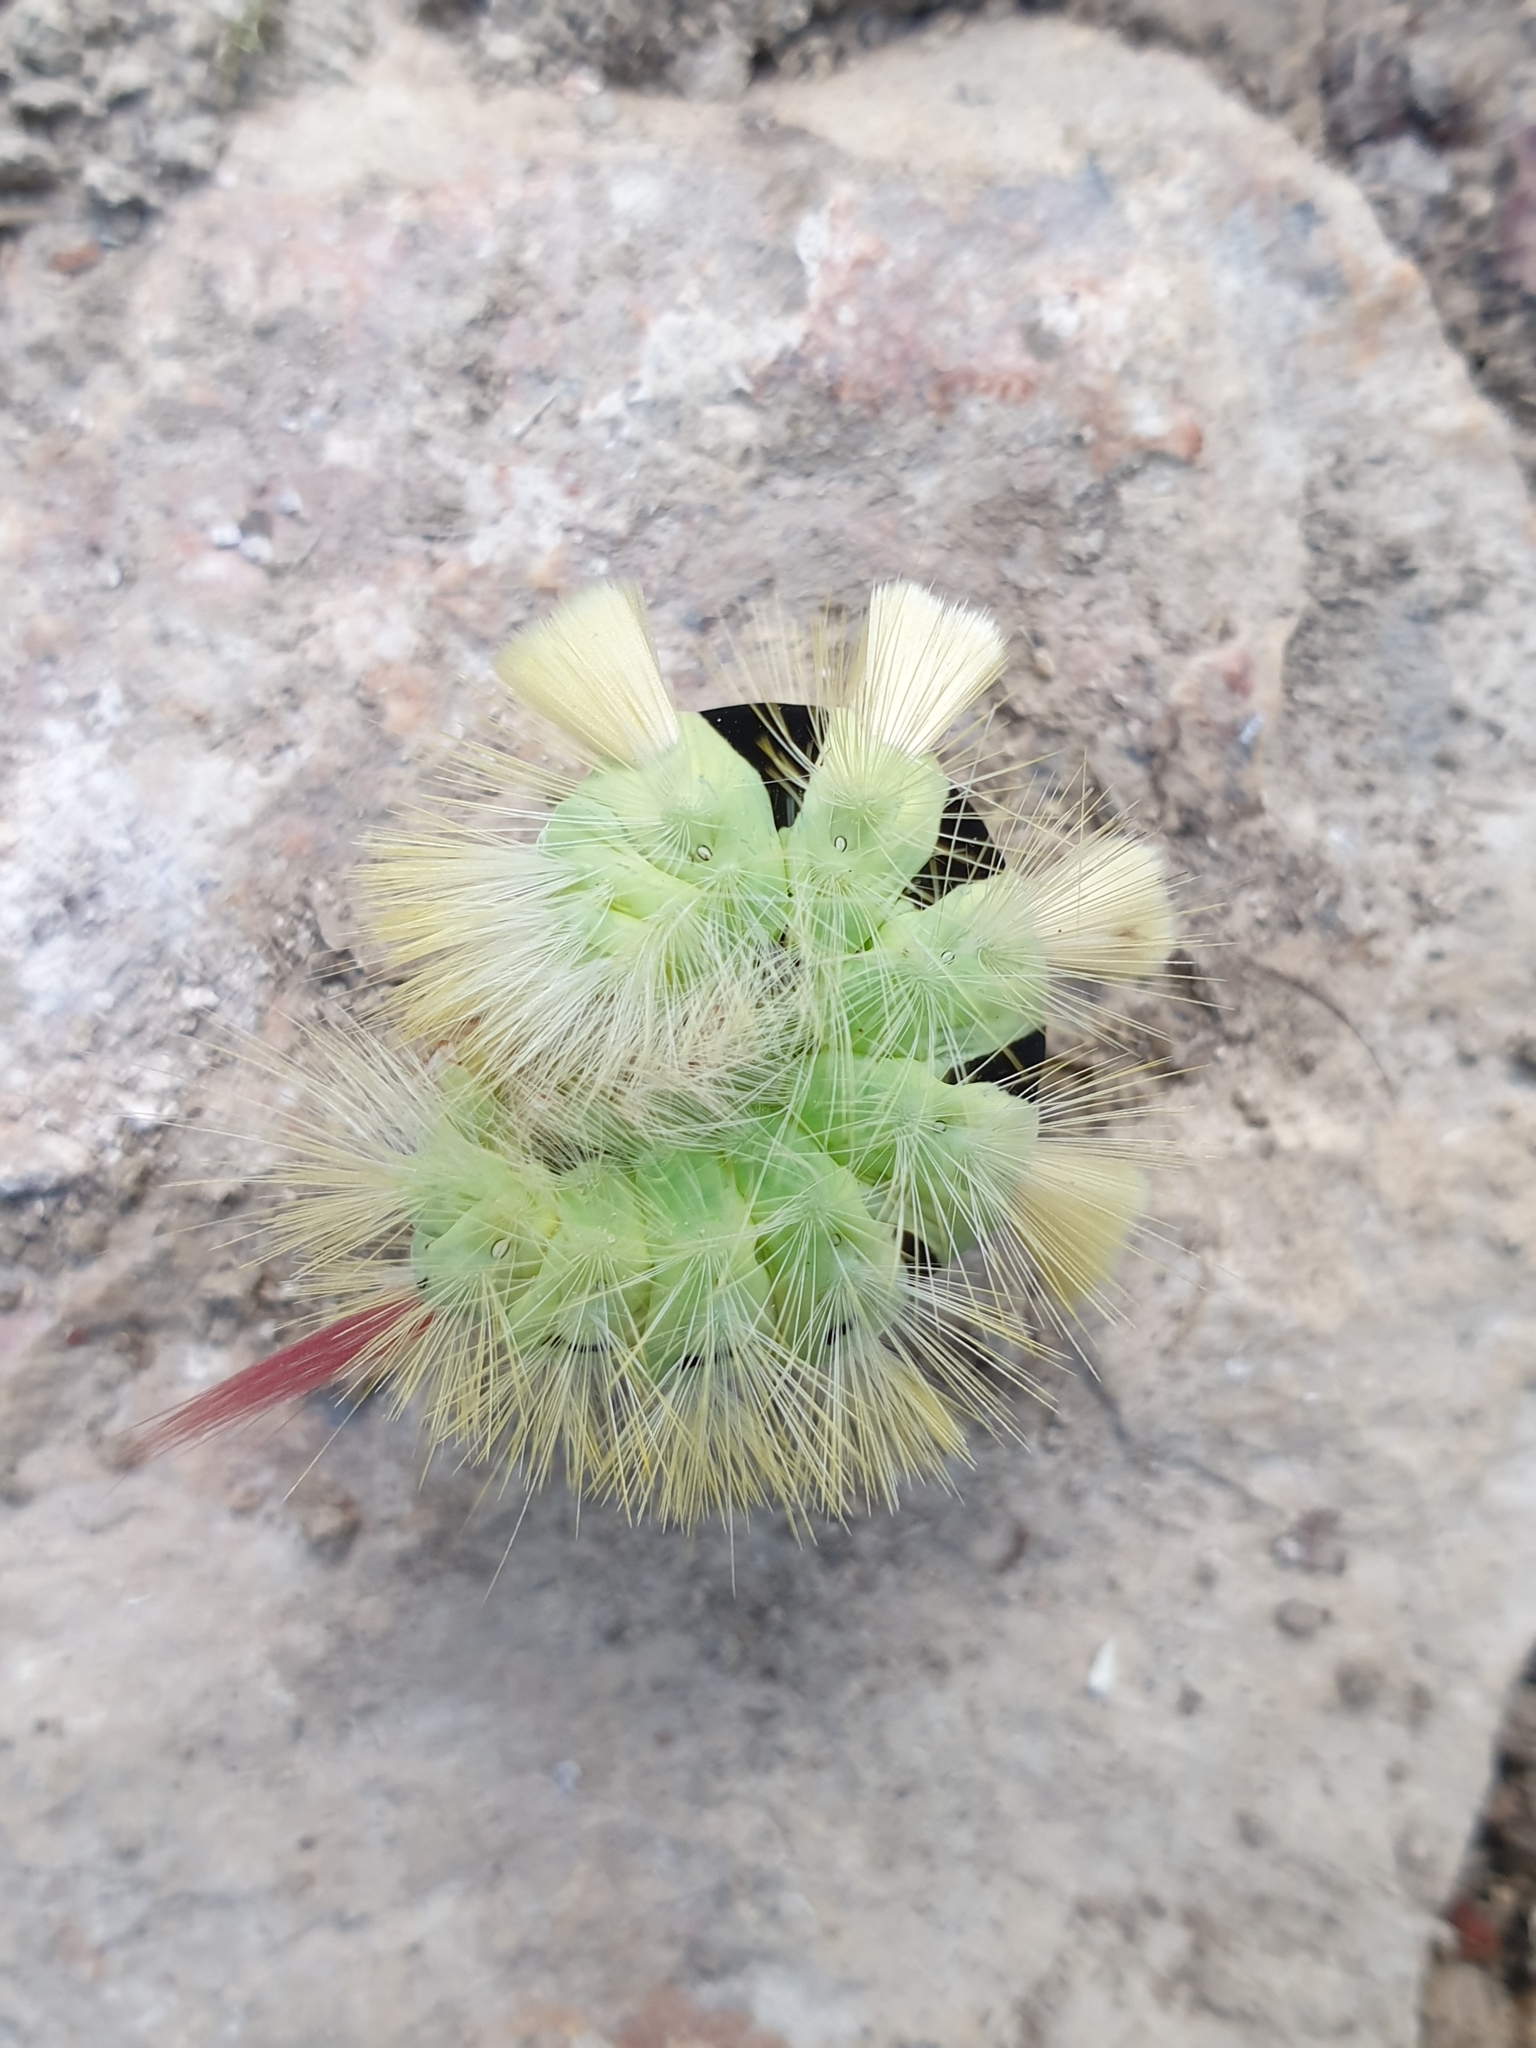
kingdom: Animalia
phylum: Arthropoda
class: Insecta
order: Lepidoptera
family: Erebidae
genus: Calliteara
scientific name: Calliteara pudibunda
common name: Pale tussock
